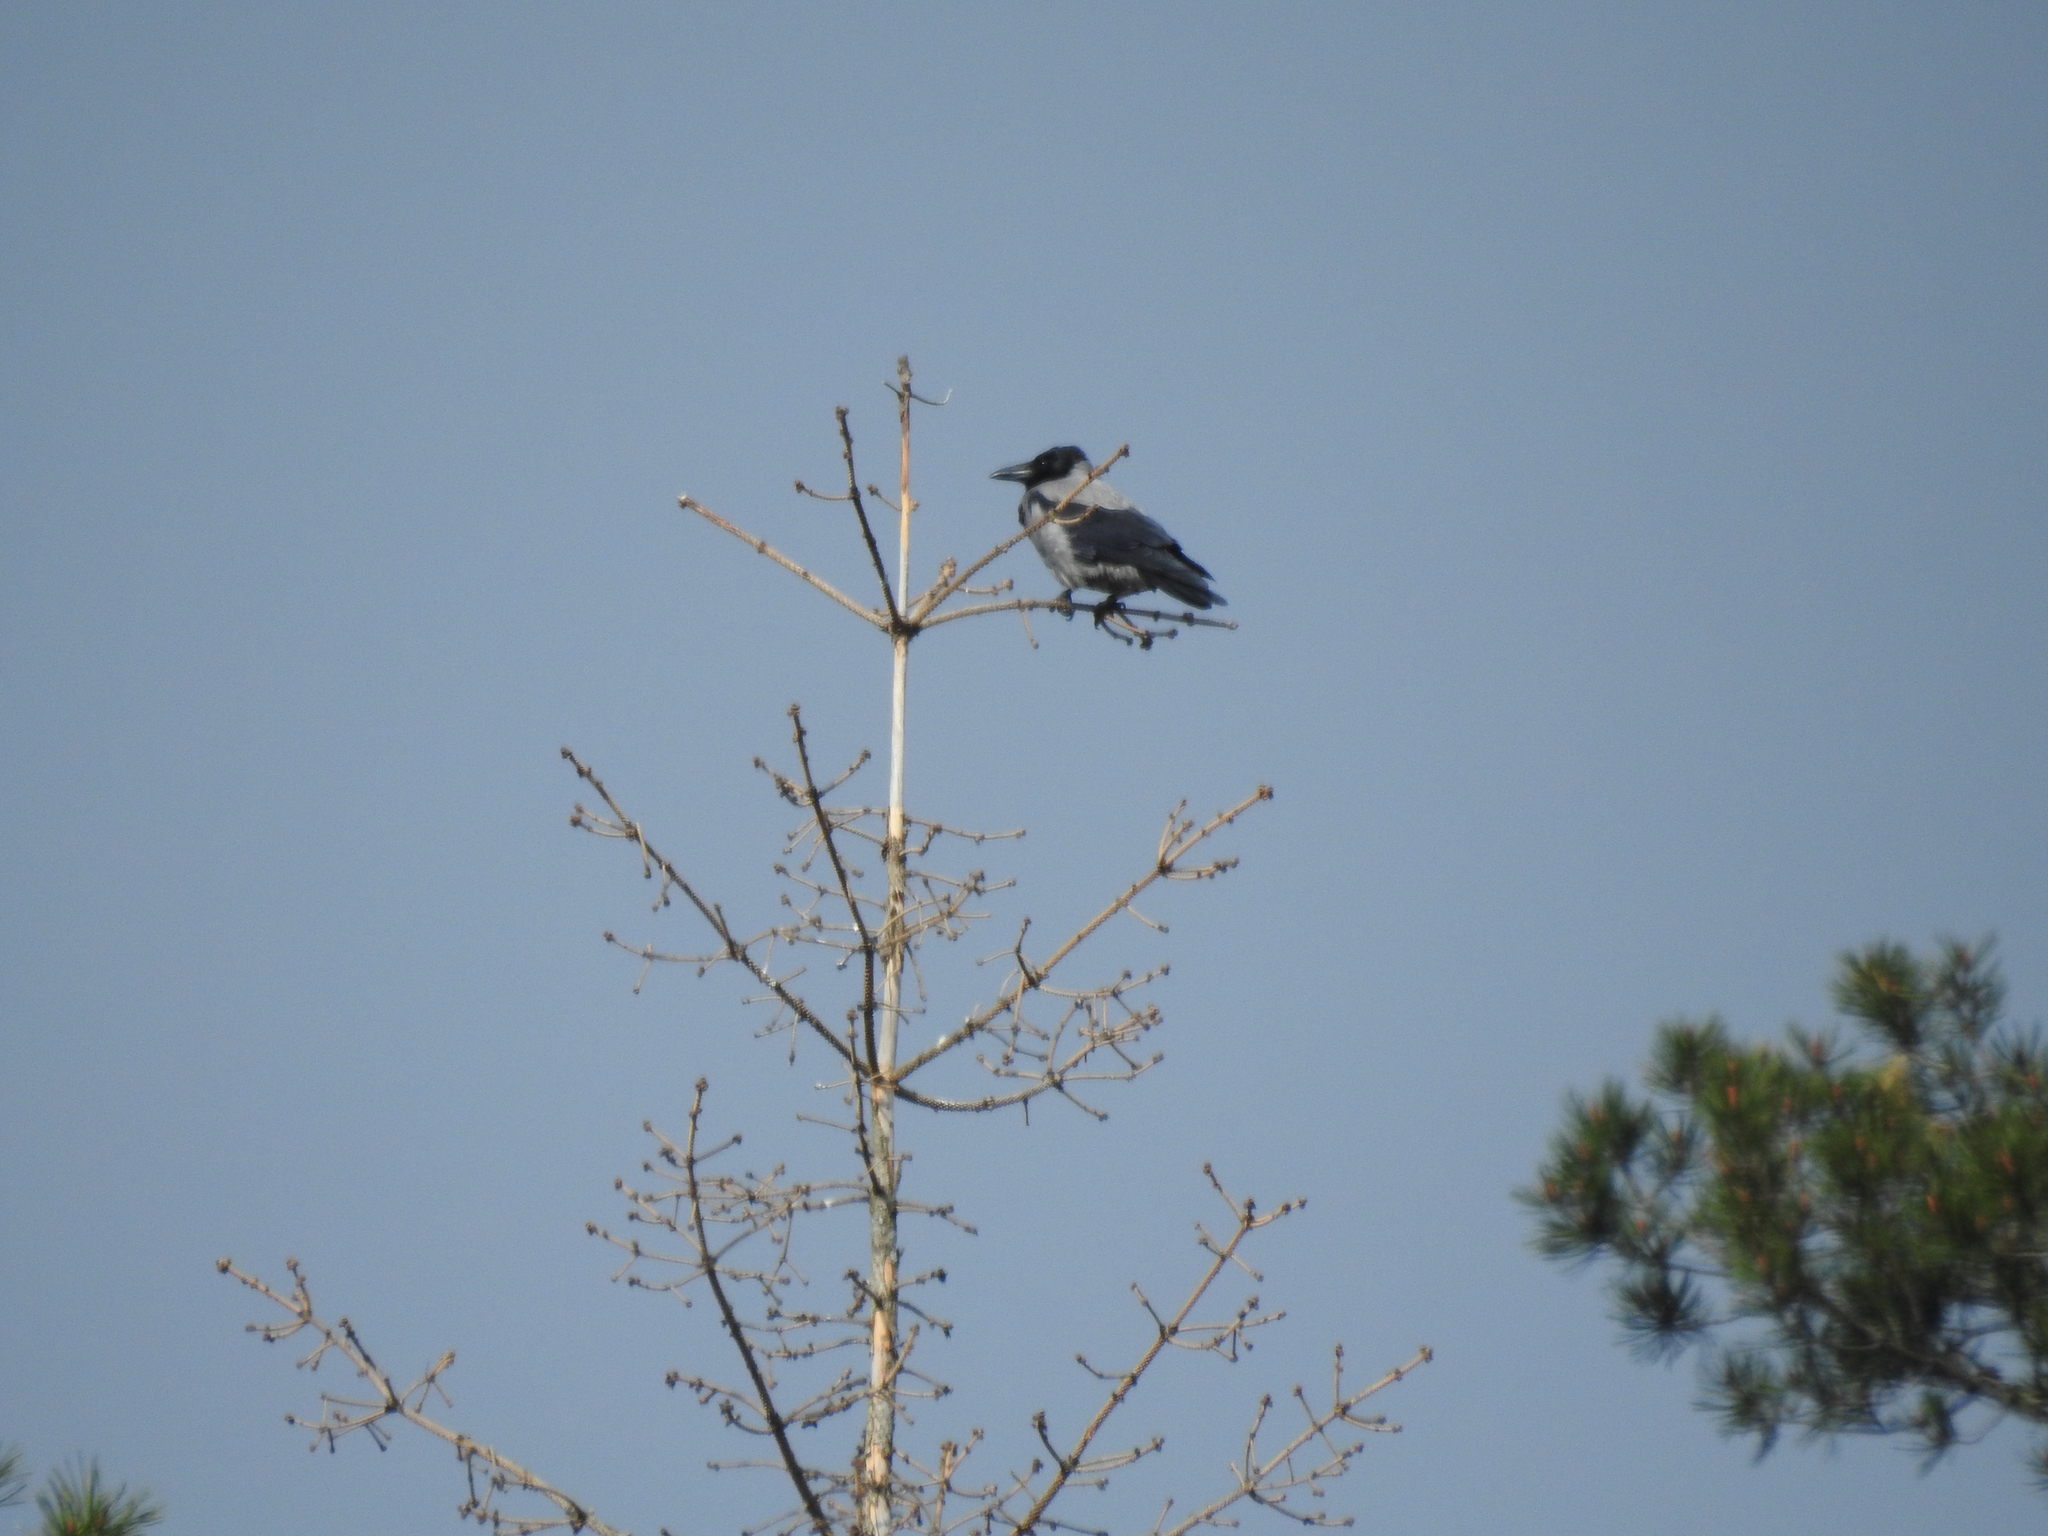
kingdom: Animalia
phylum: Chordata
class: Aves
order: Passeriformes
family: Corvidae
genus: Corvus
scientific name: Corvus cornix
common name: Hooded crow
